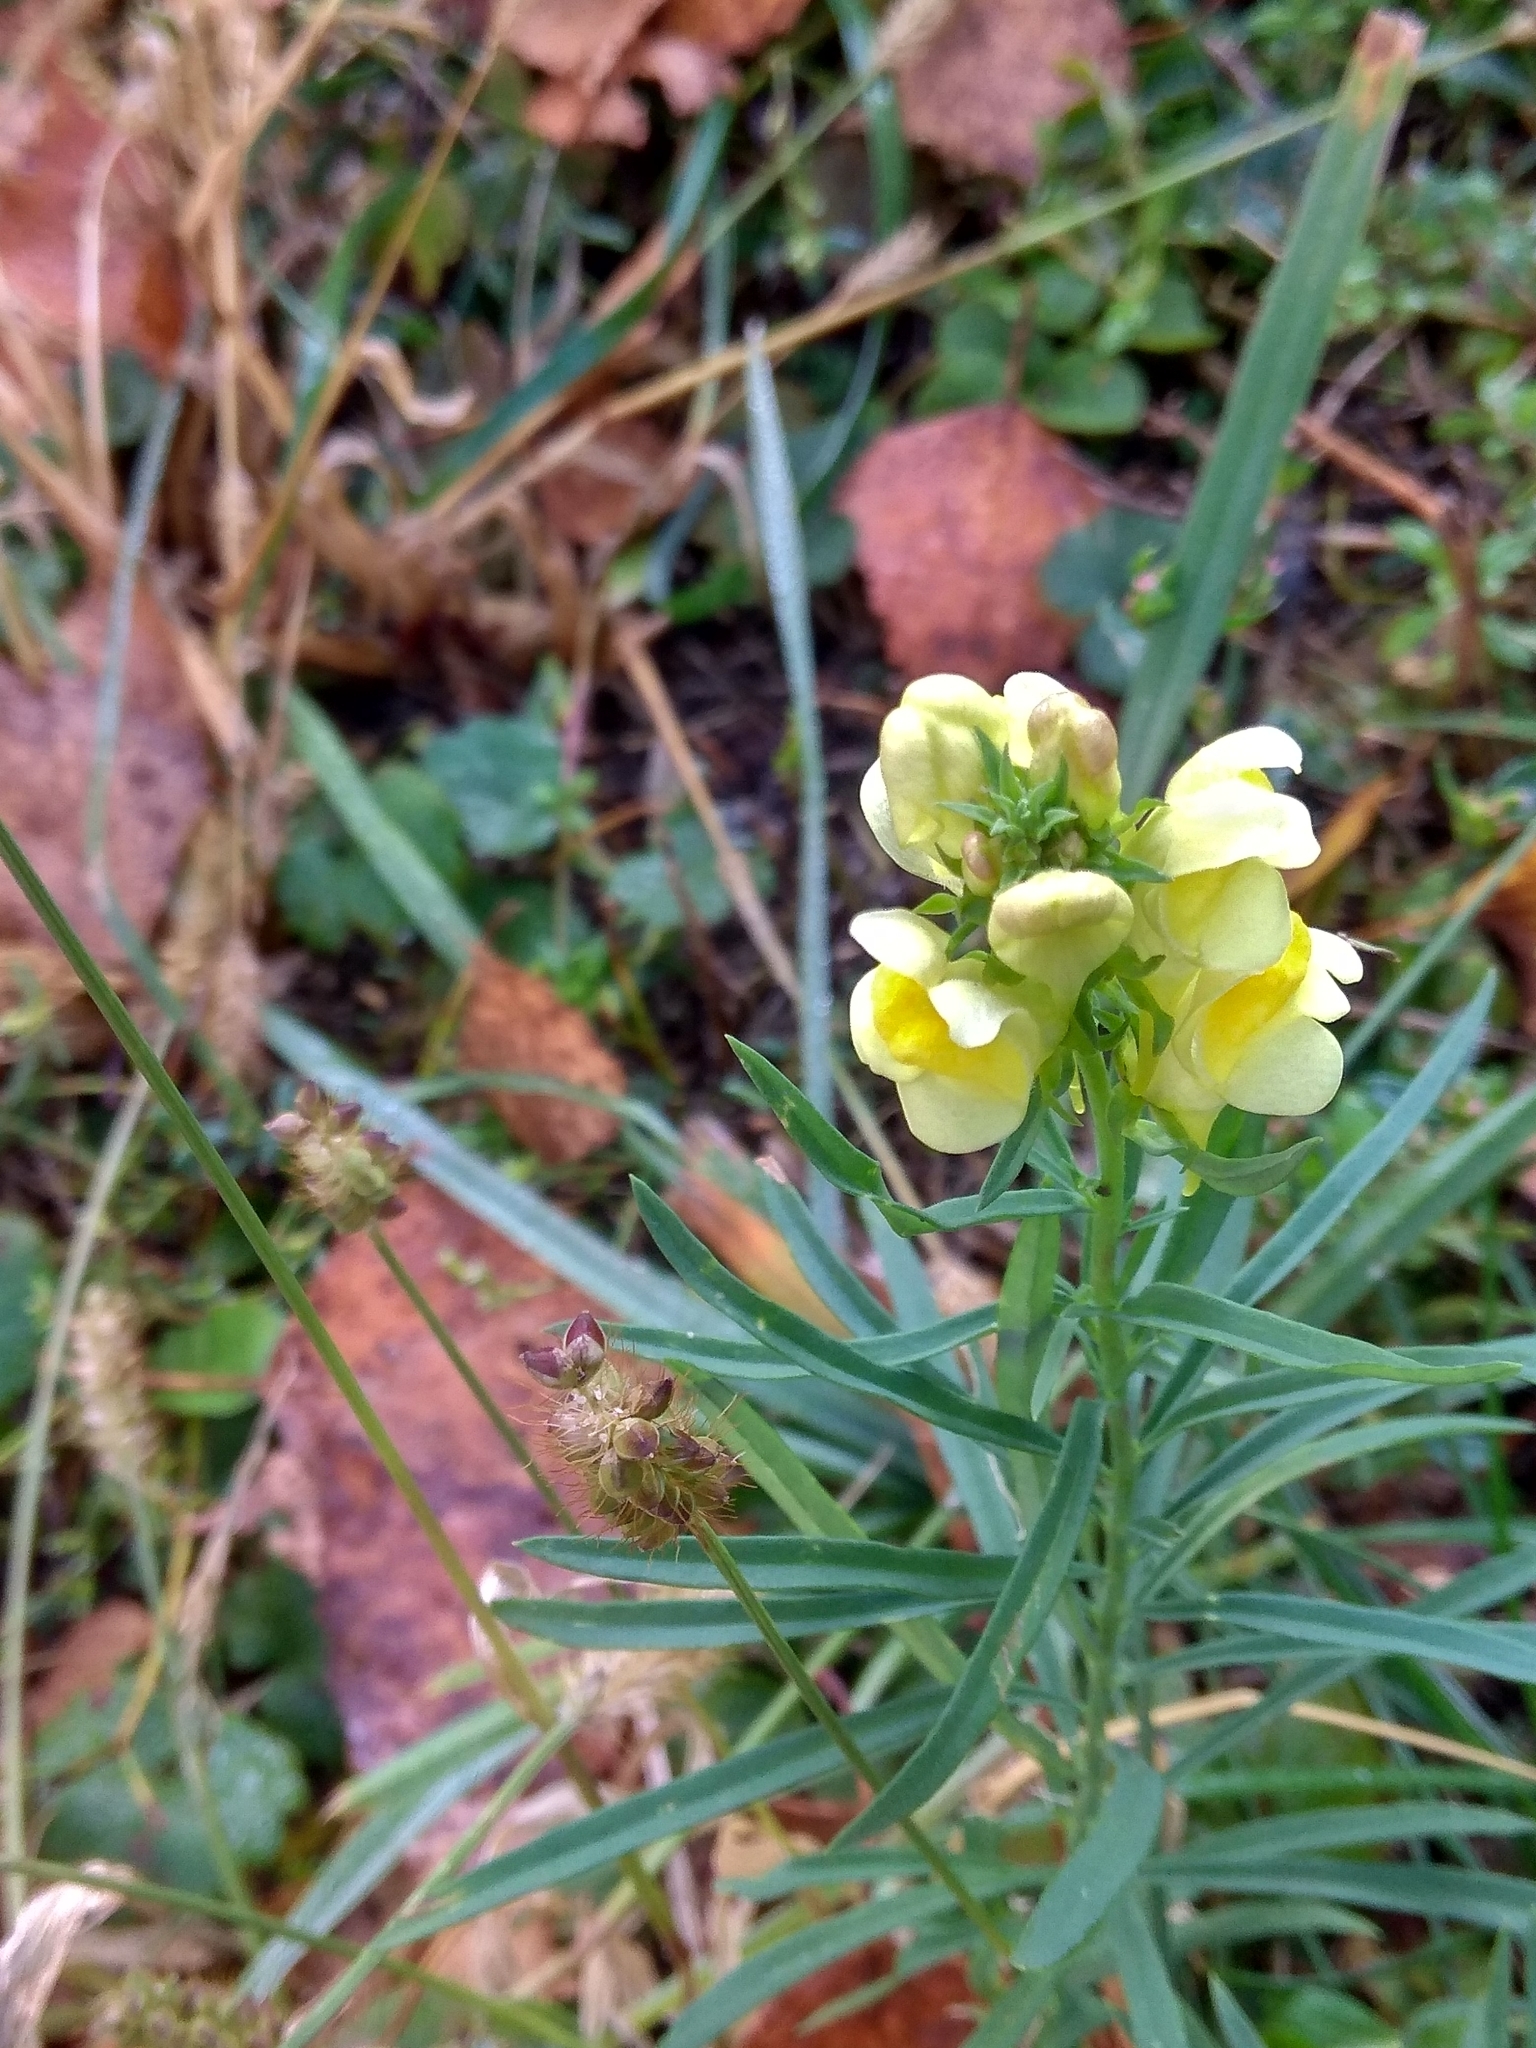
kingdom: Plantae
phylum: Tracheophyta
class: Magnoliopsida
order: Lamiales
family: Plantaginaceae
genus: Linaria
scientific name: Linaria vulgaris
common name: Butter and eggs
